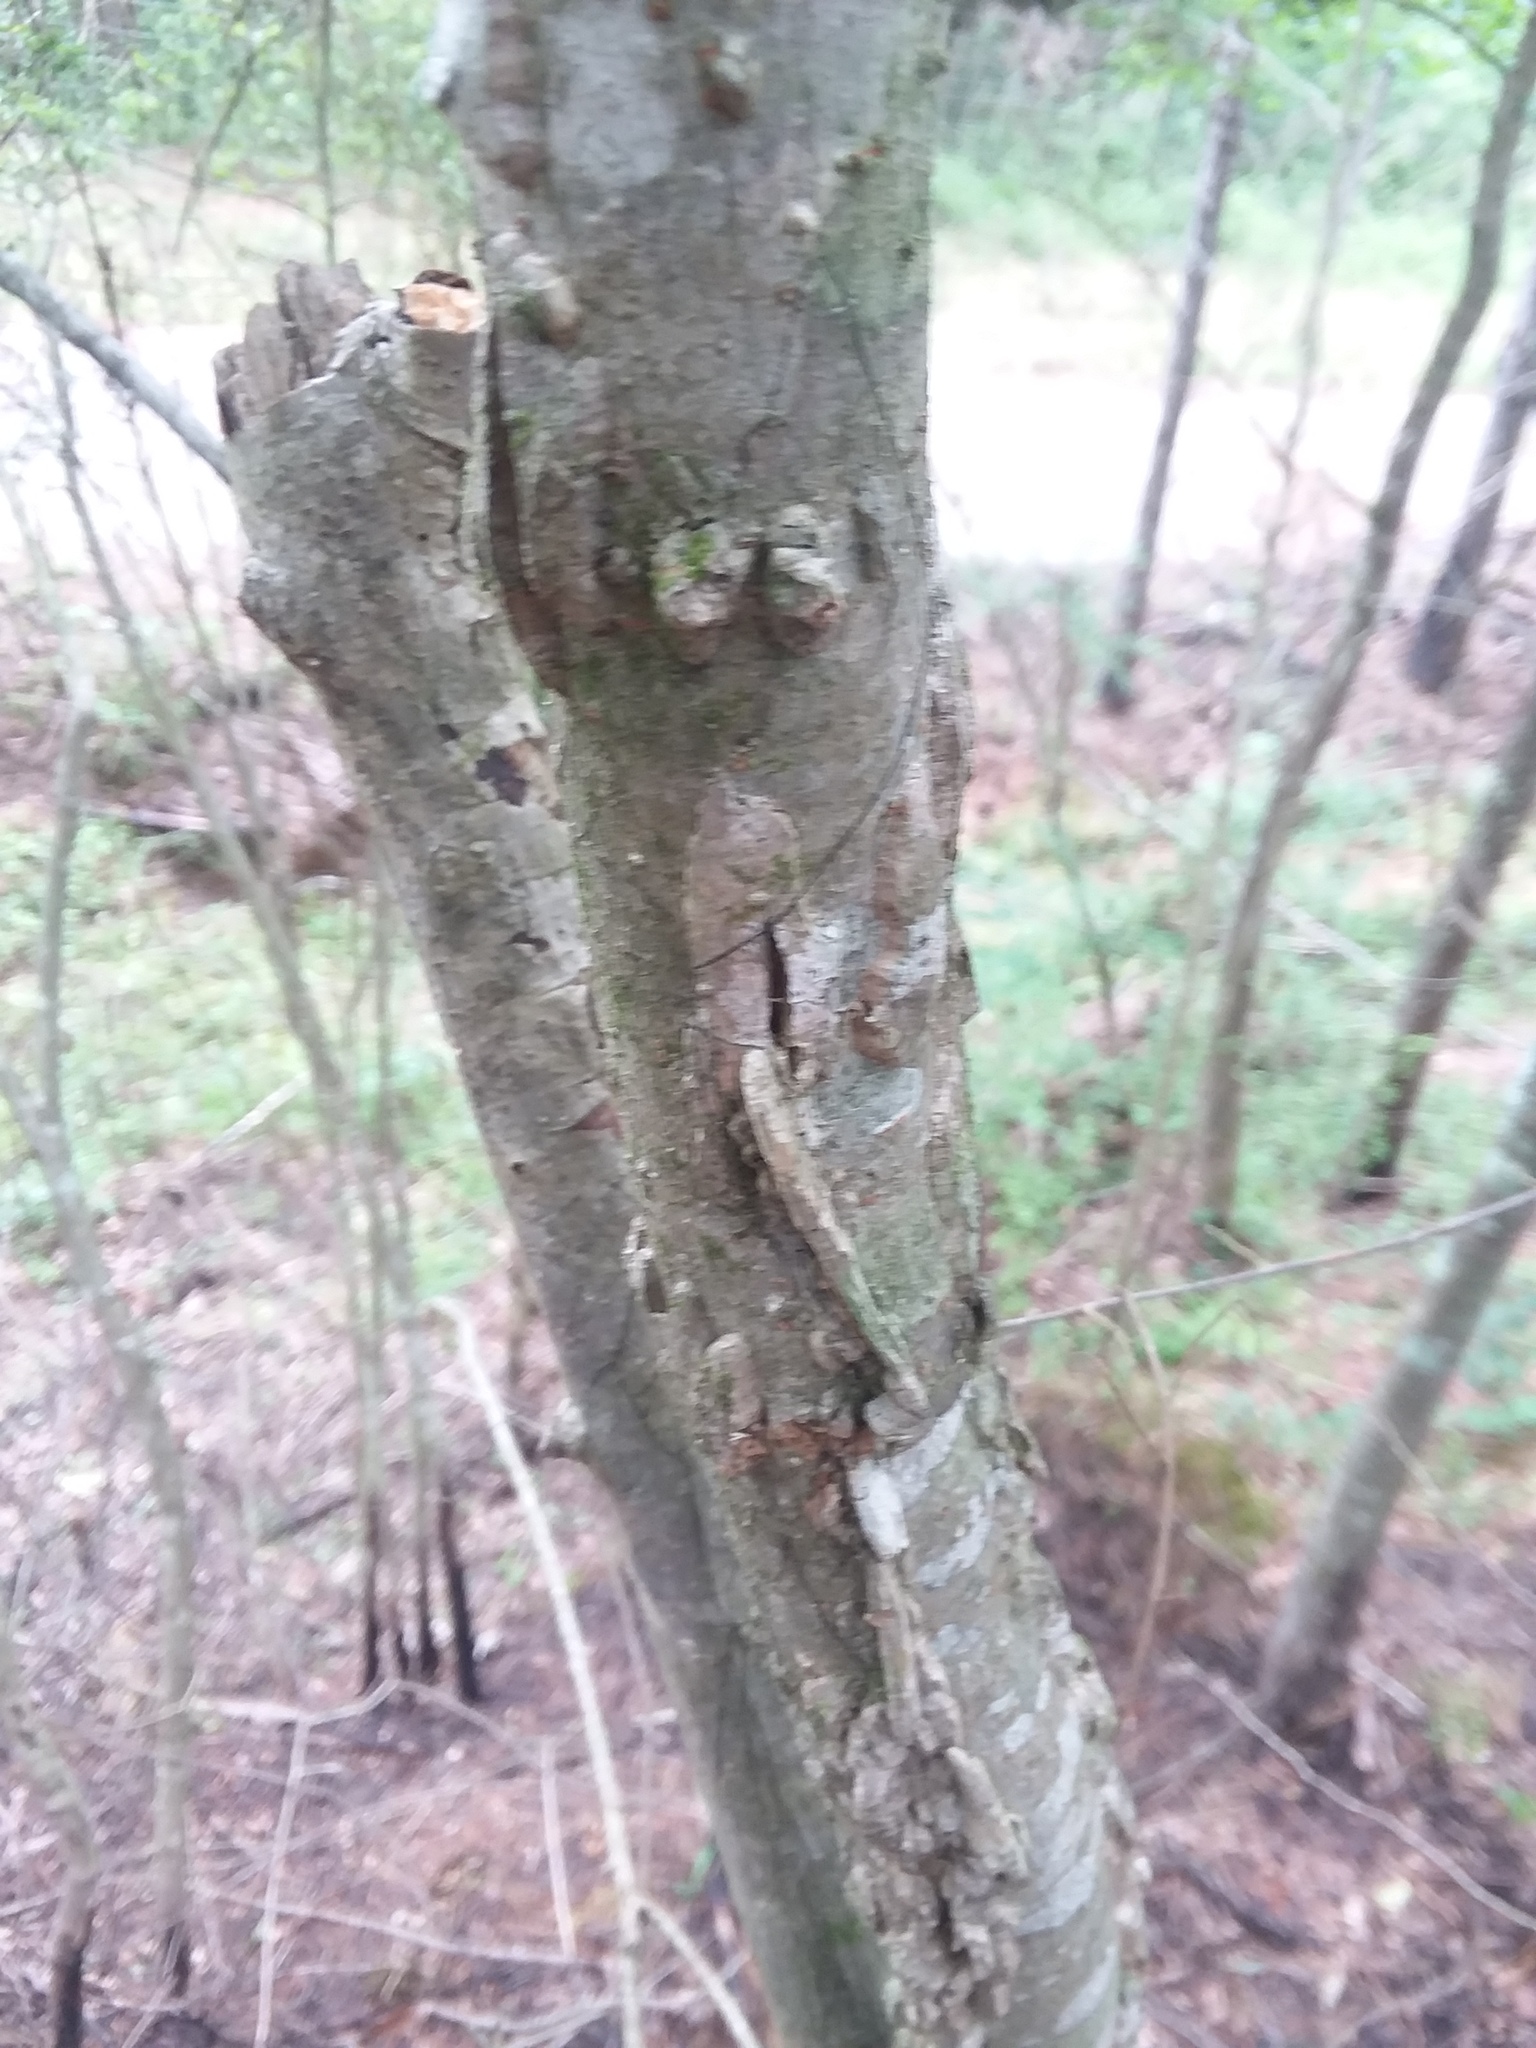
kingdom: Plantae
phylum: Tracheophyta
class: Magnoliopsida
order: Rosales
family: Ulmaceae
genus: Ulmus
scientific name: Ulmus alata
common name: Winged elm
